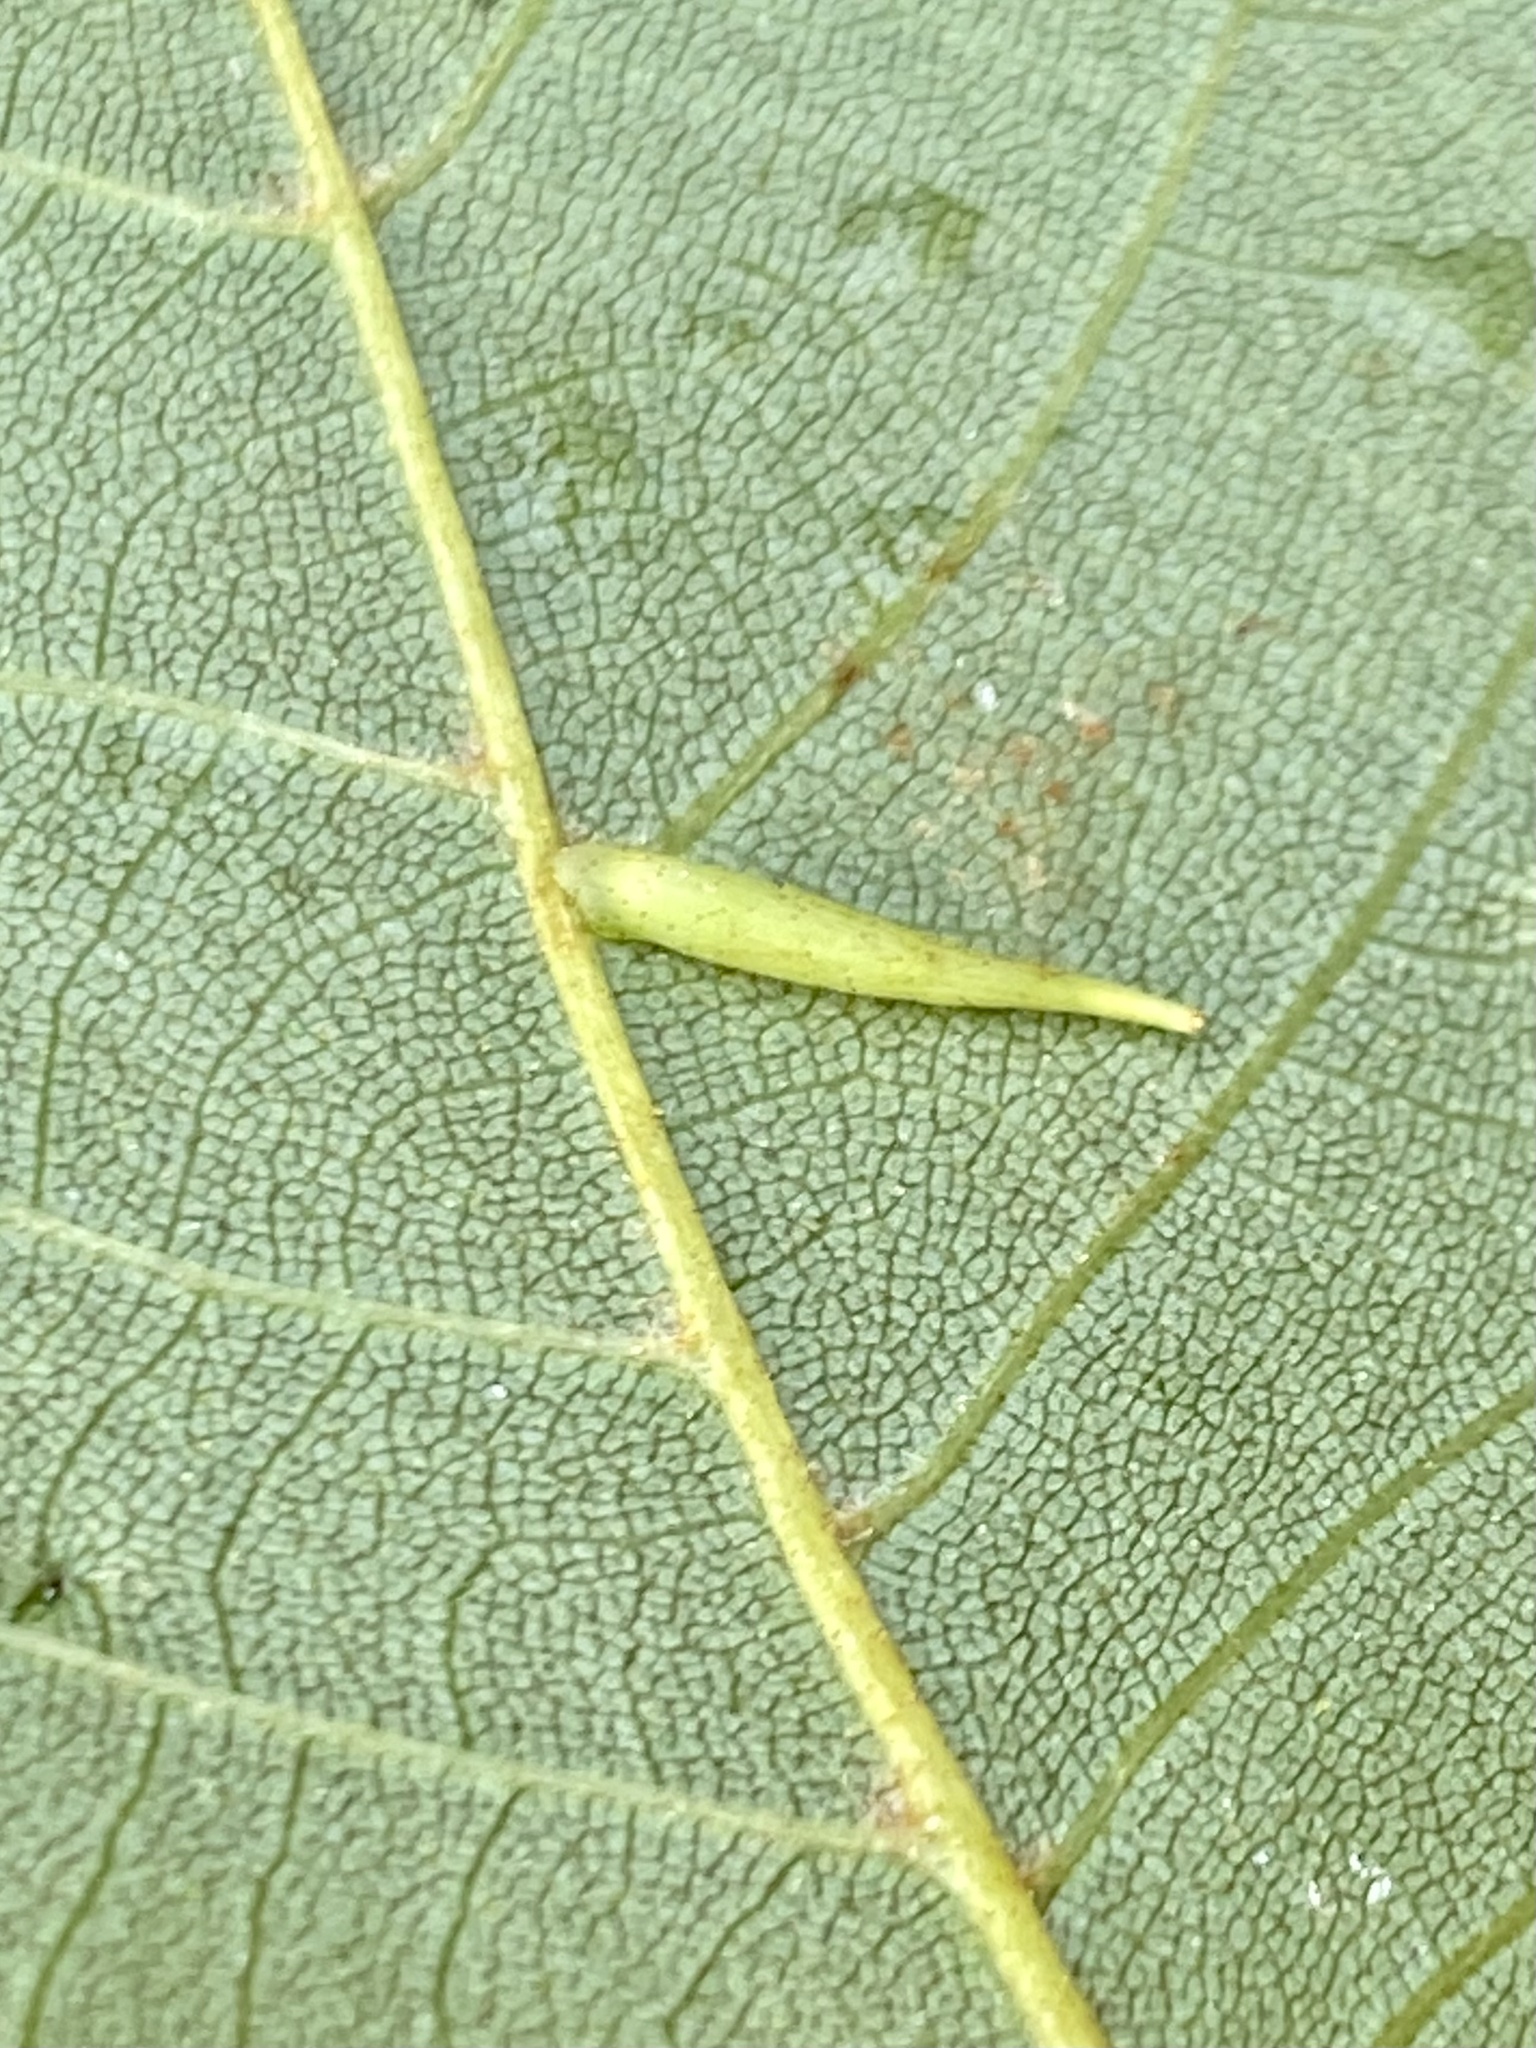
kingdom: Animalia
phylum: Arthropoda
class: Insecta
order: Diptera
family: Cecidomyiidae
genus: Caryomyia
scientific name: Caryomyia
